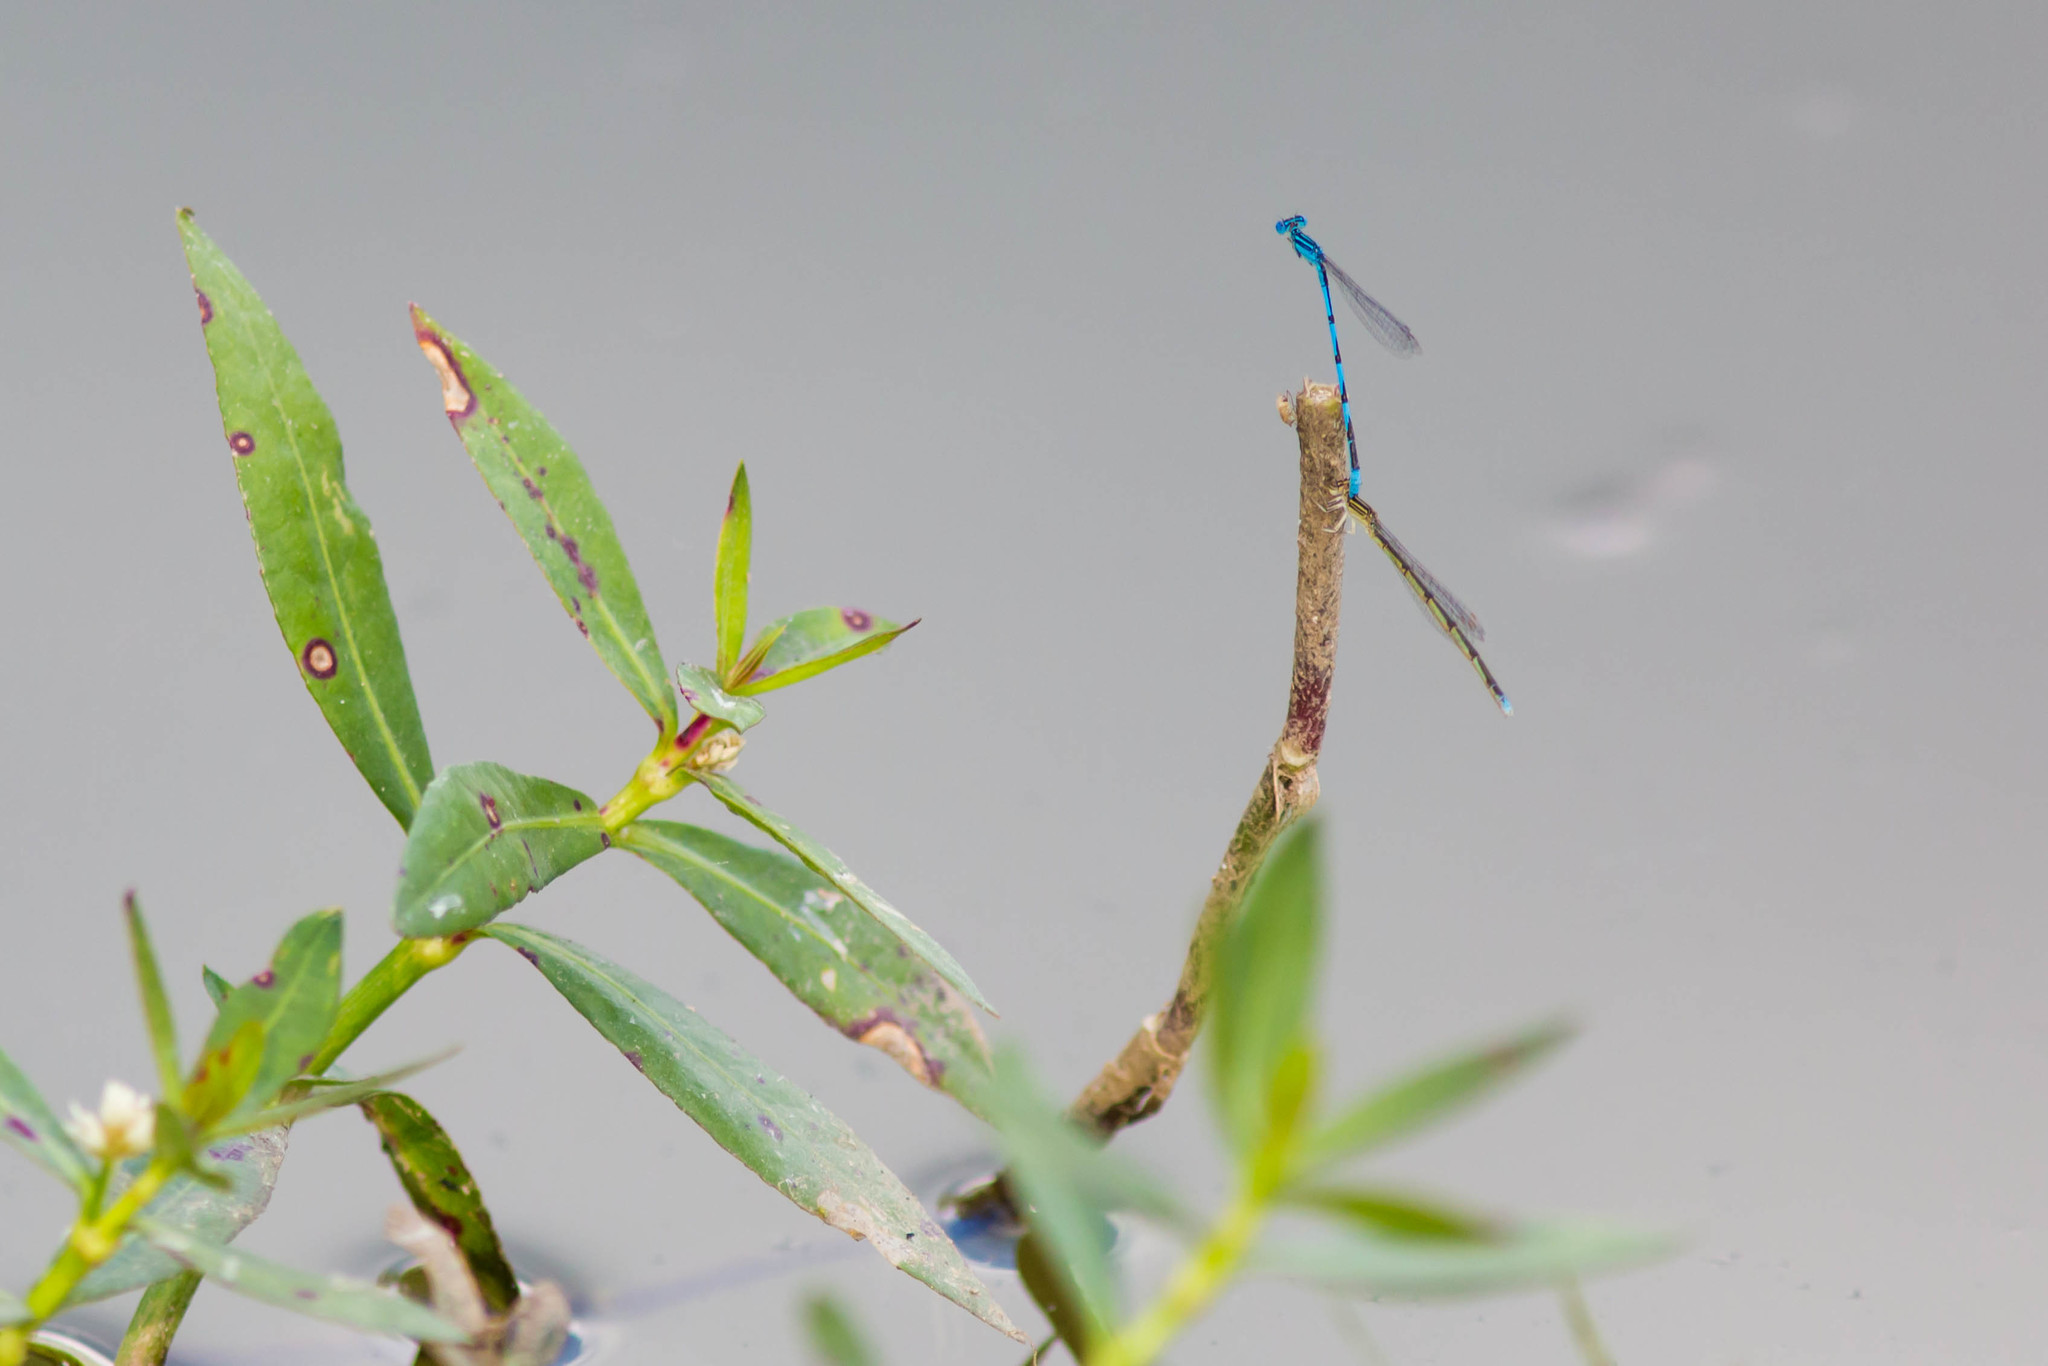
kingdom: Animalia
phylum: Arthropoda
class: Insecta
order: Odonata
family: Coenagrionidae
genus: Enallagma
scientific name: Enallagma basidens
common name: Double-striped bluet
